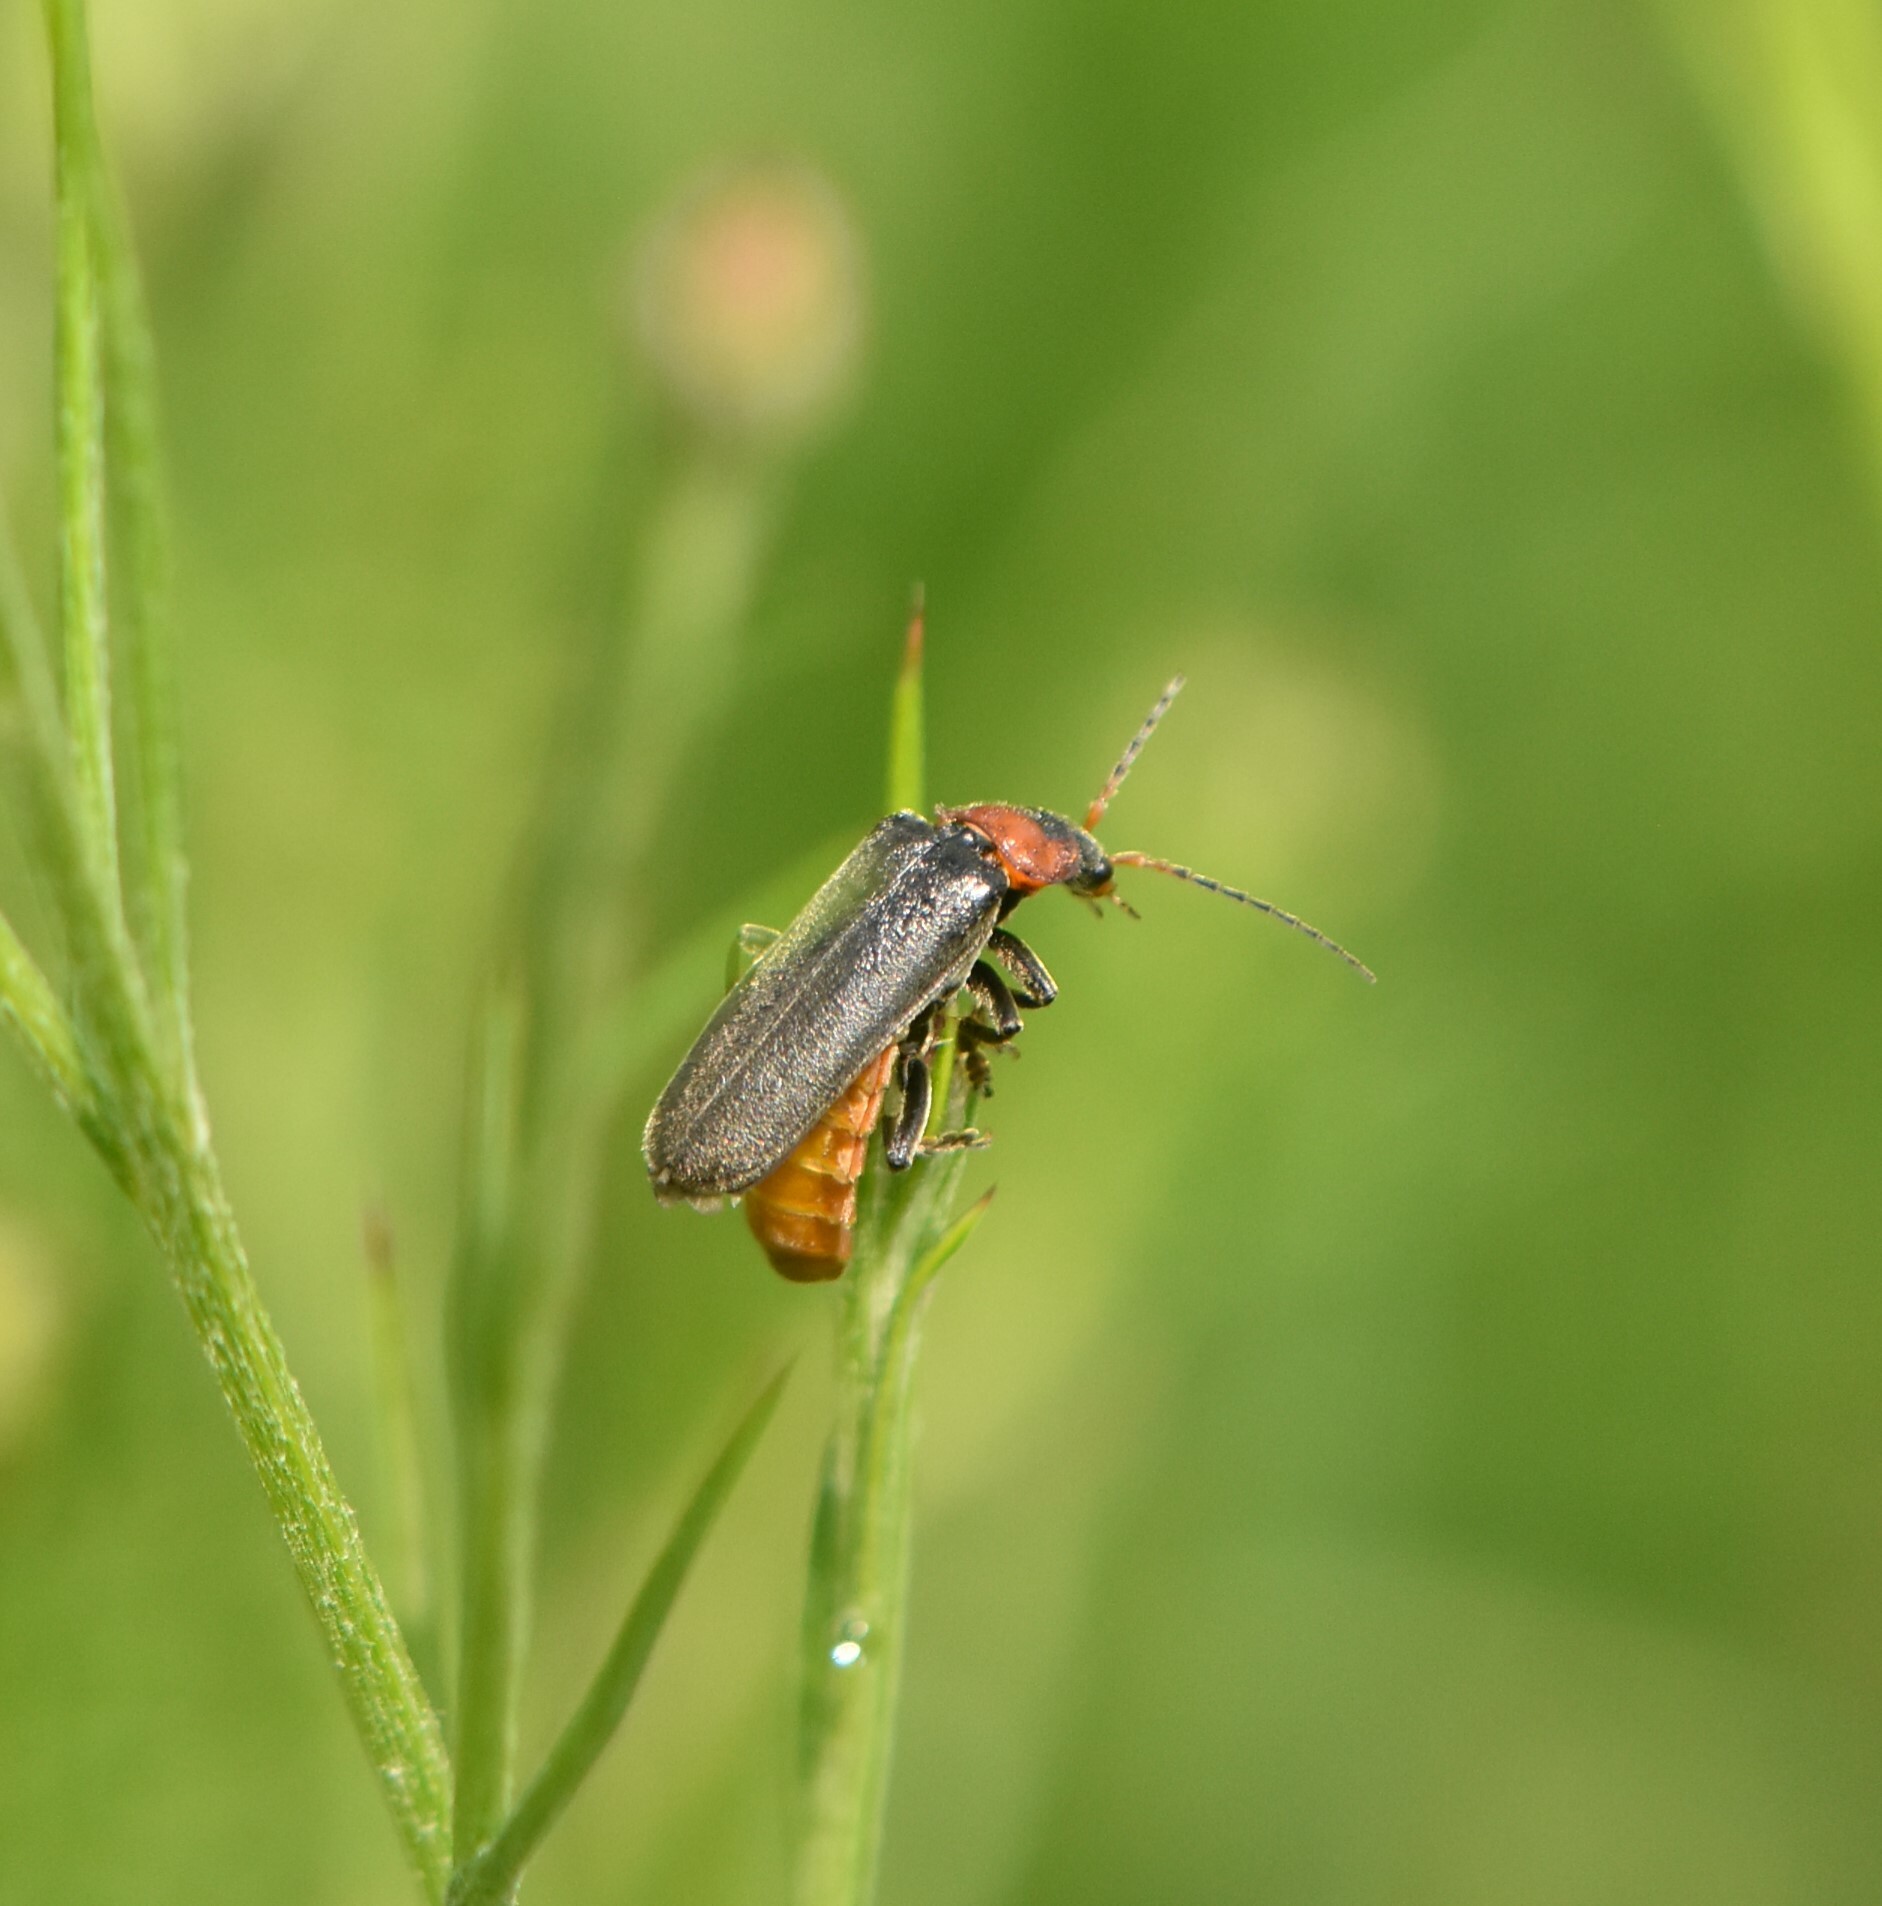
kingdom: Animalia
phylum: Arthropoda
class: Insecta
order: Coleoptera
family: Cantharidae
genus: Cantharis
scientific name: Cantharis fusca
